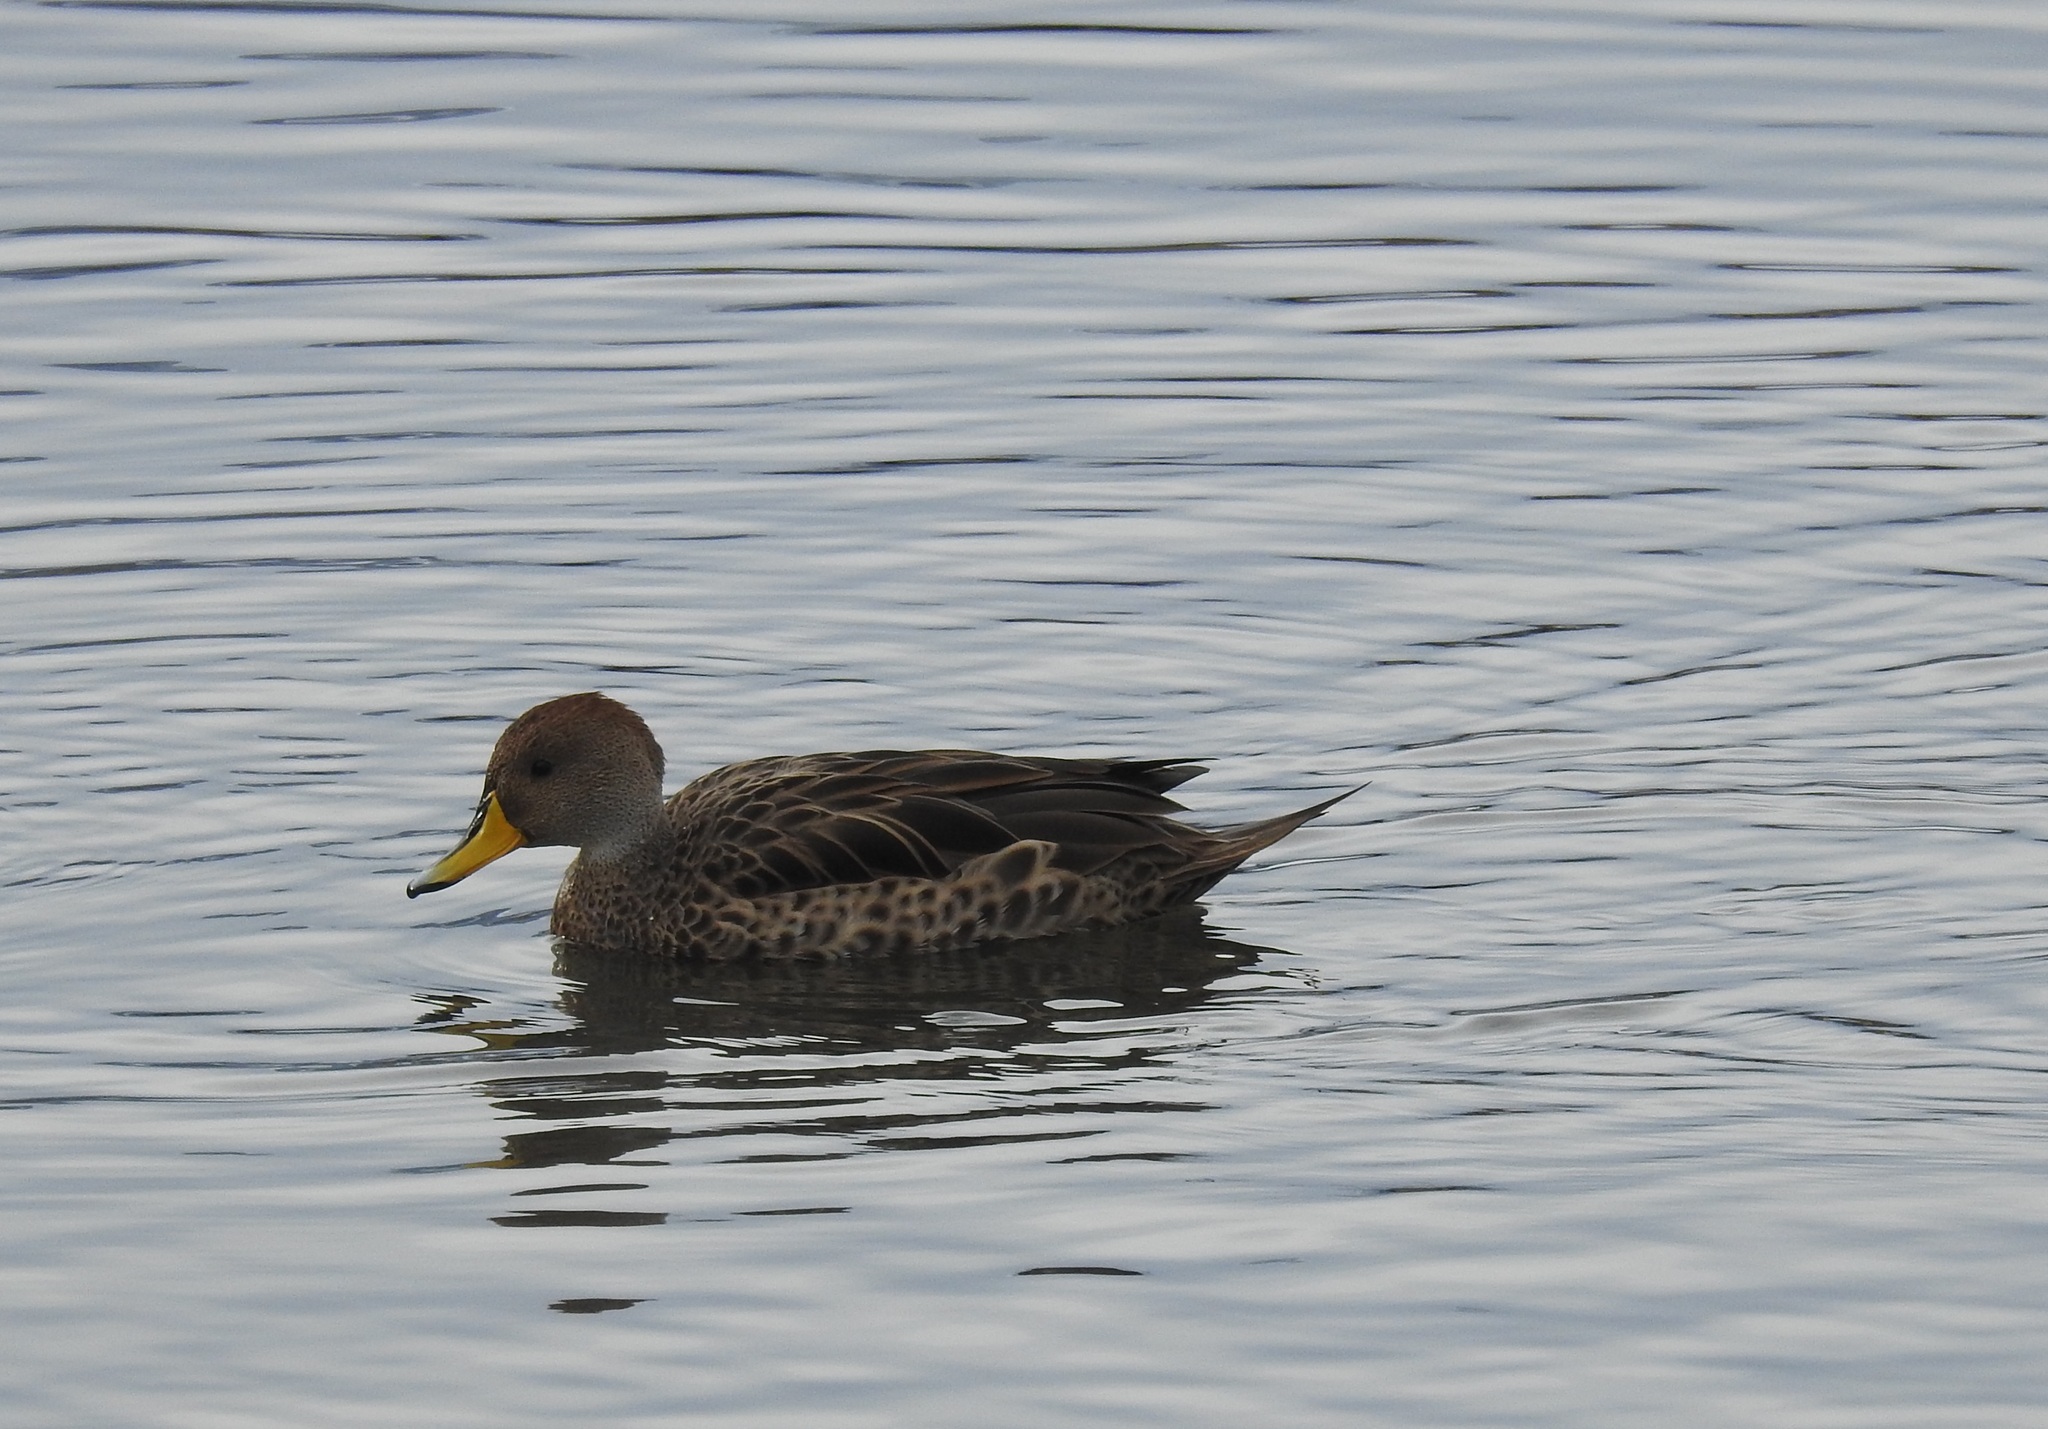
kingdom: Animalia
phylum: Chordata
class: Aves
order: Anseriformes
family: Anatidae
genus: Anas
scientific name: Anas georgica
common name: Yellow-billed pintail
